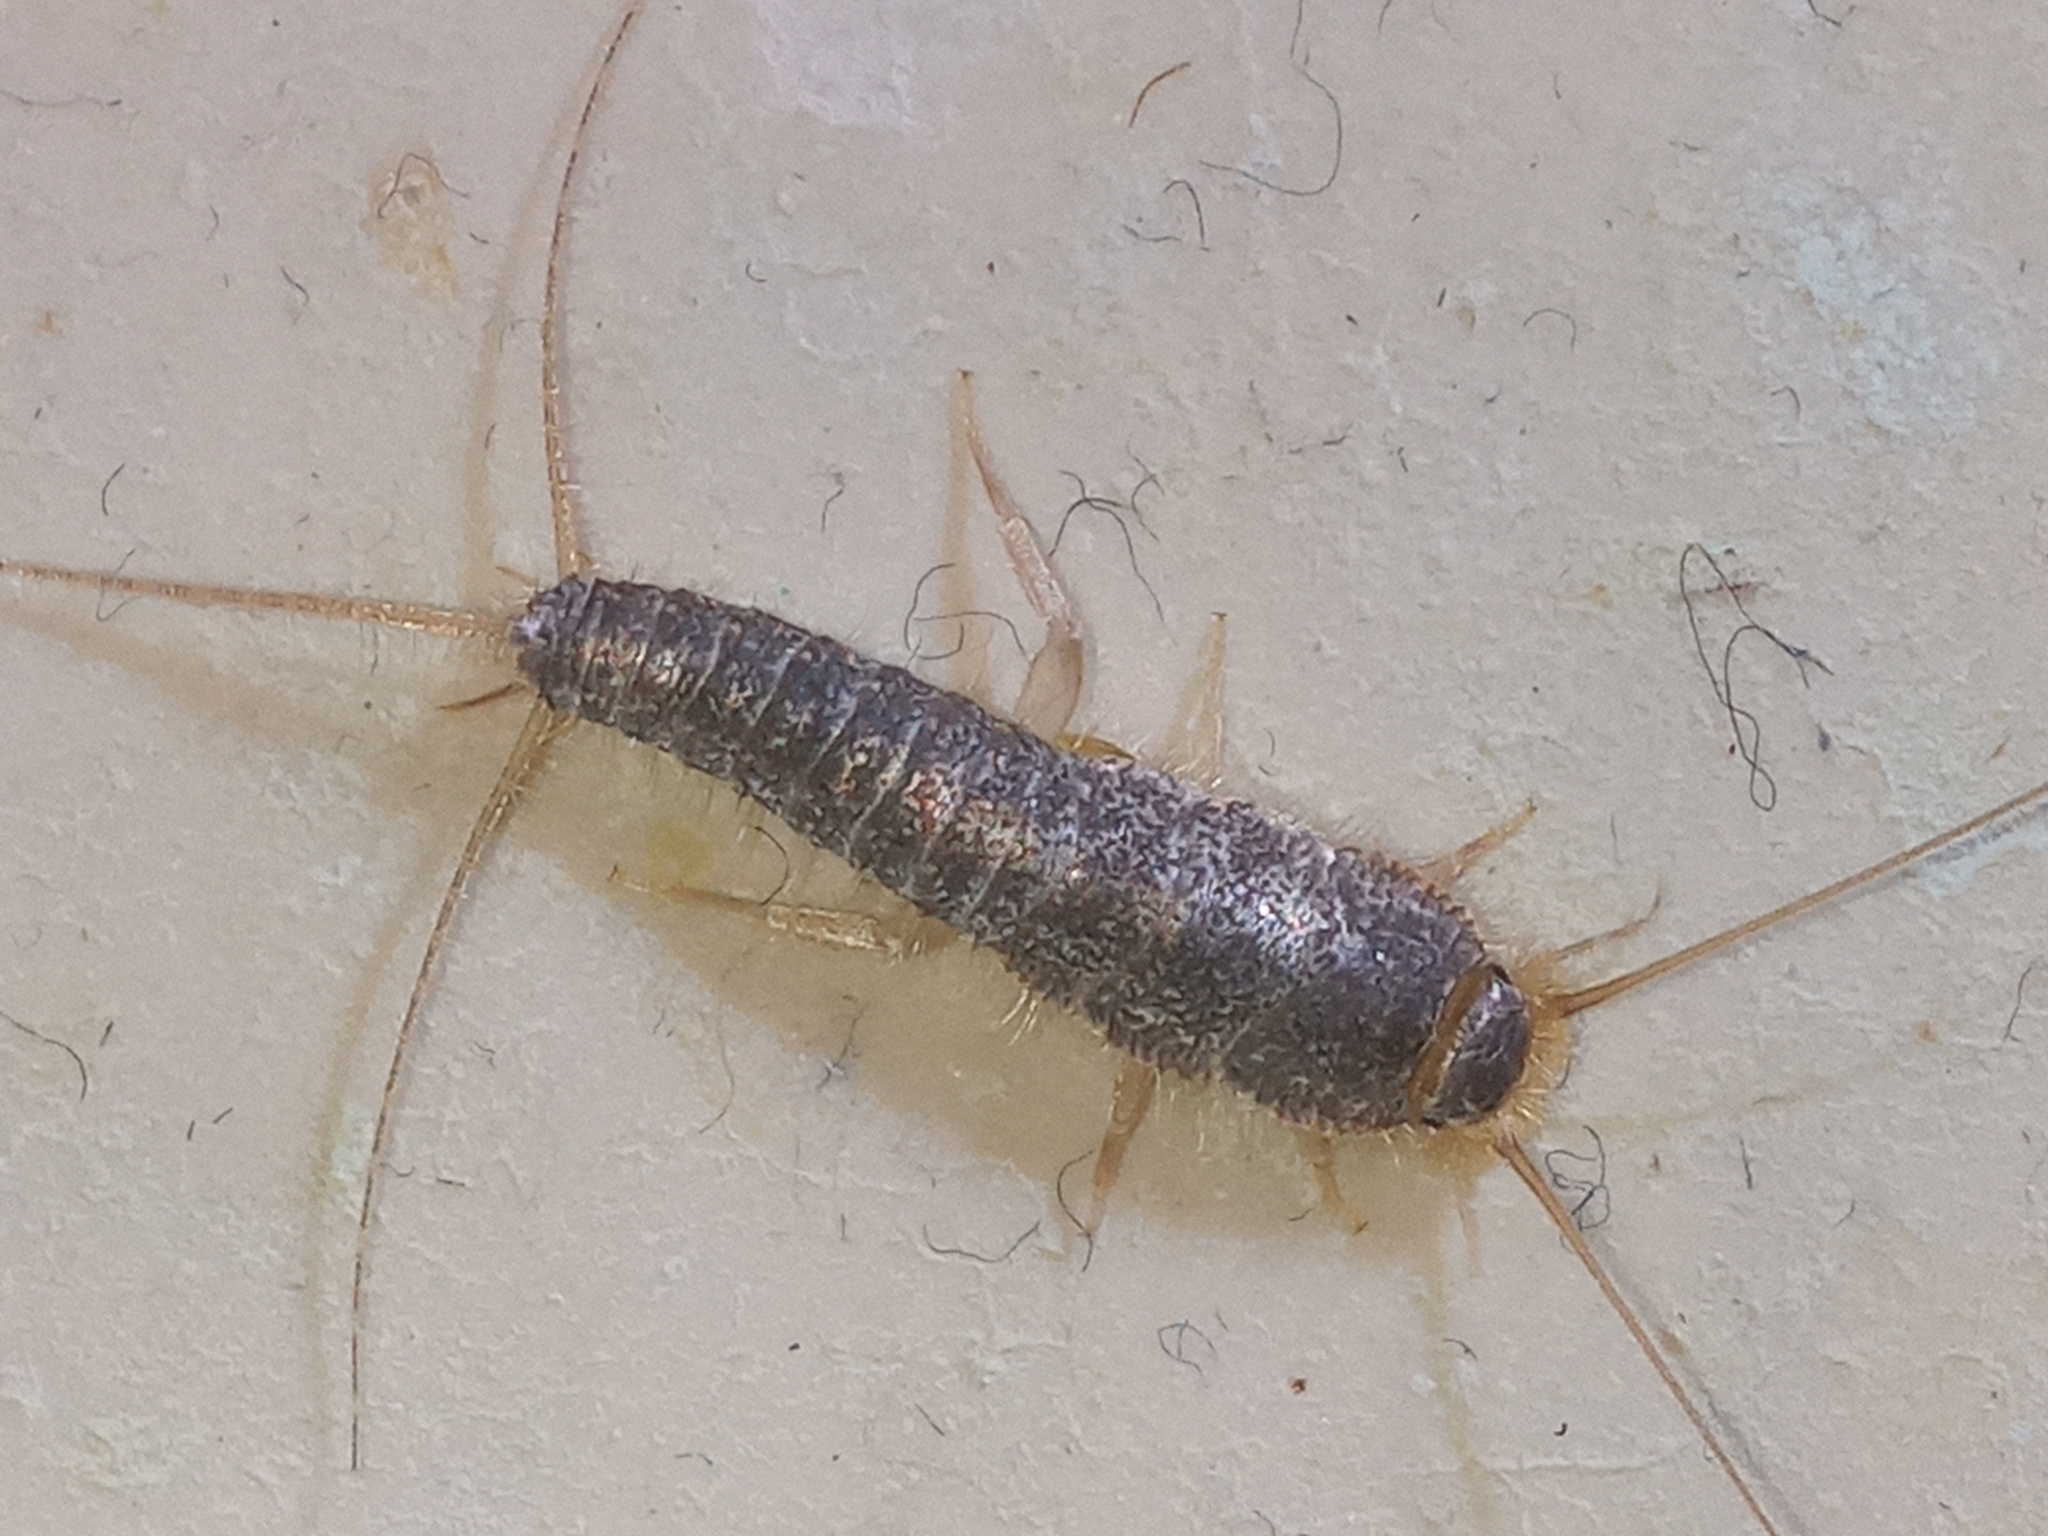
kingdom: Animalia
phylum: Arthropoda
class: Insecta
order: Zygentoma
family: Lepismatidae
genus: Ctenolepisma
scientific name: Ctenolepisma longicaudatum
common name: Silverfish
